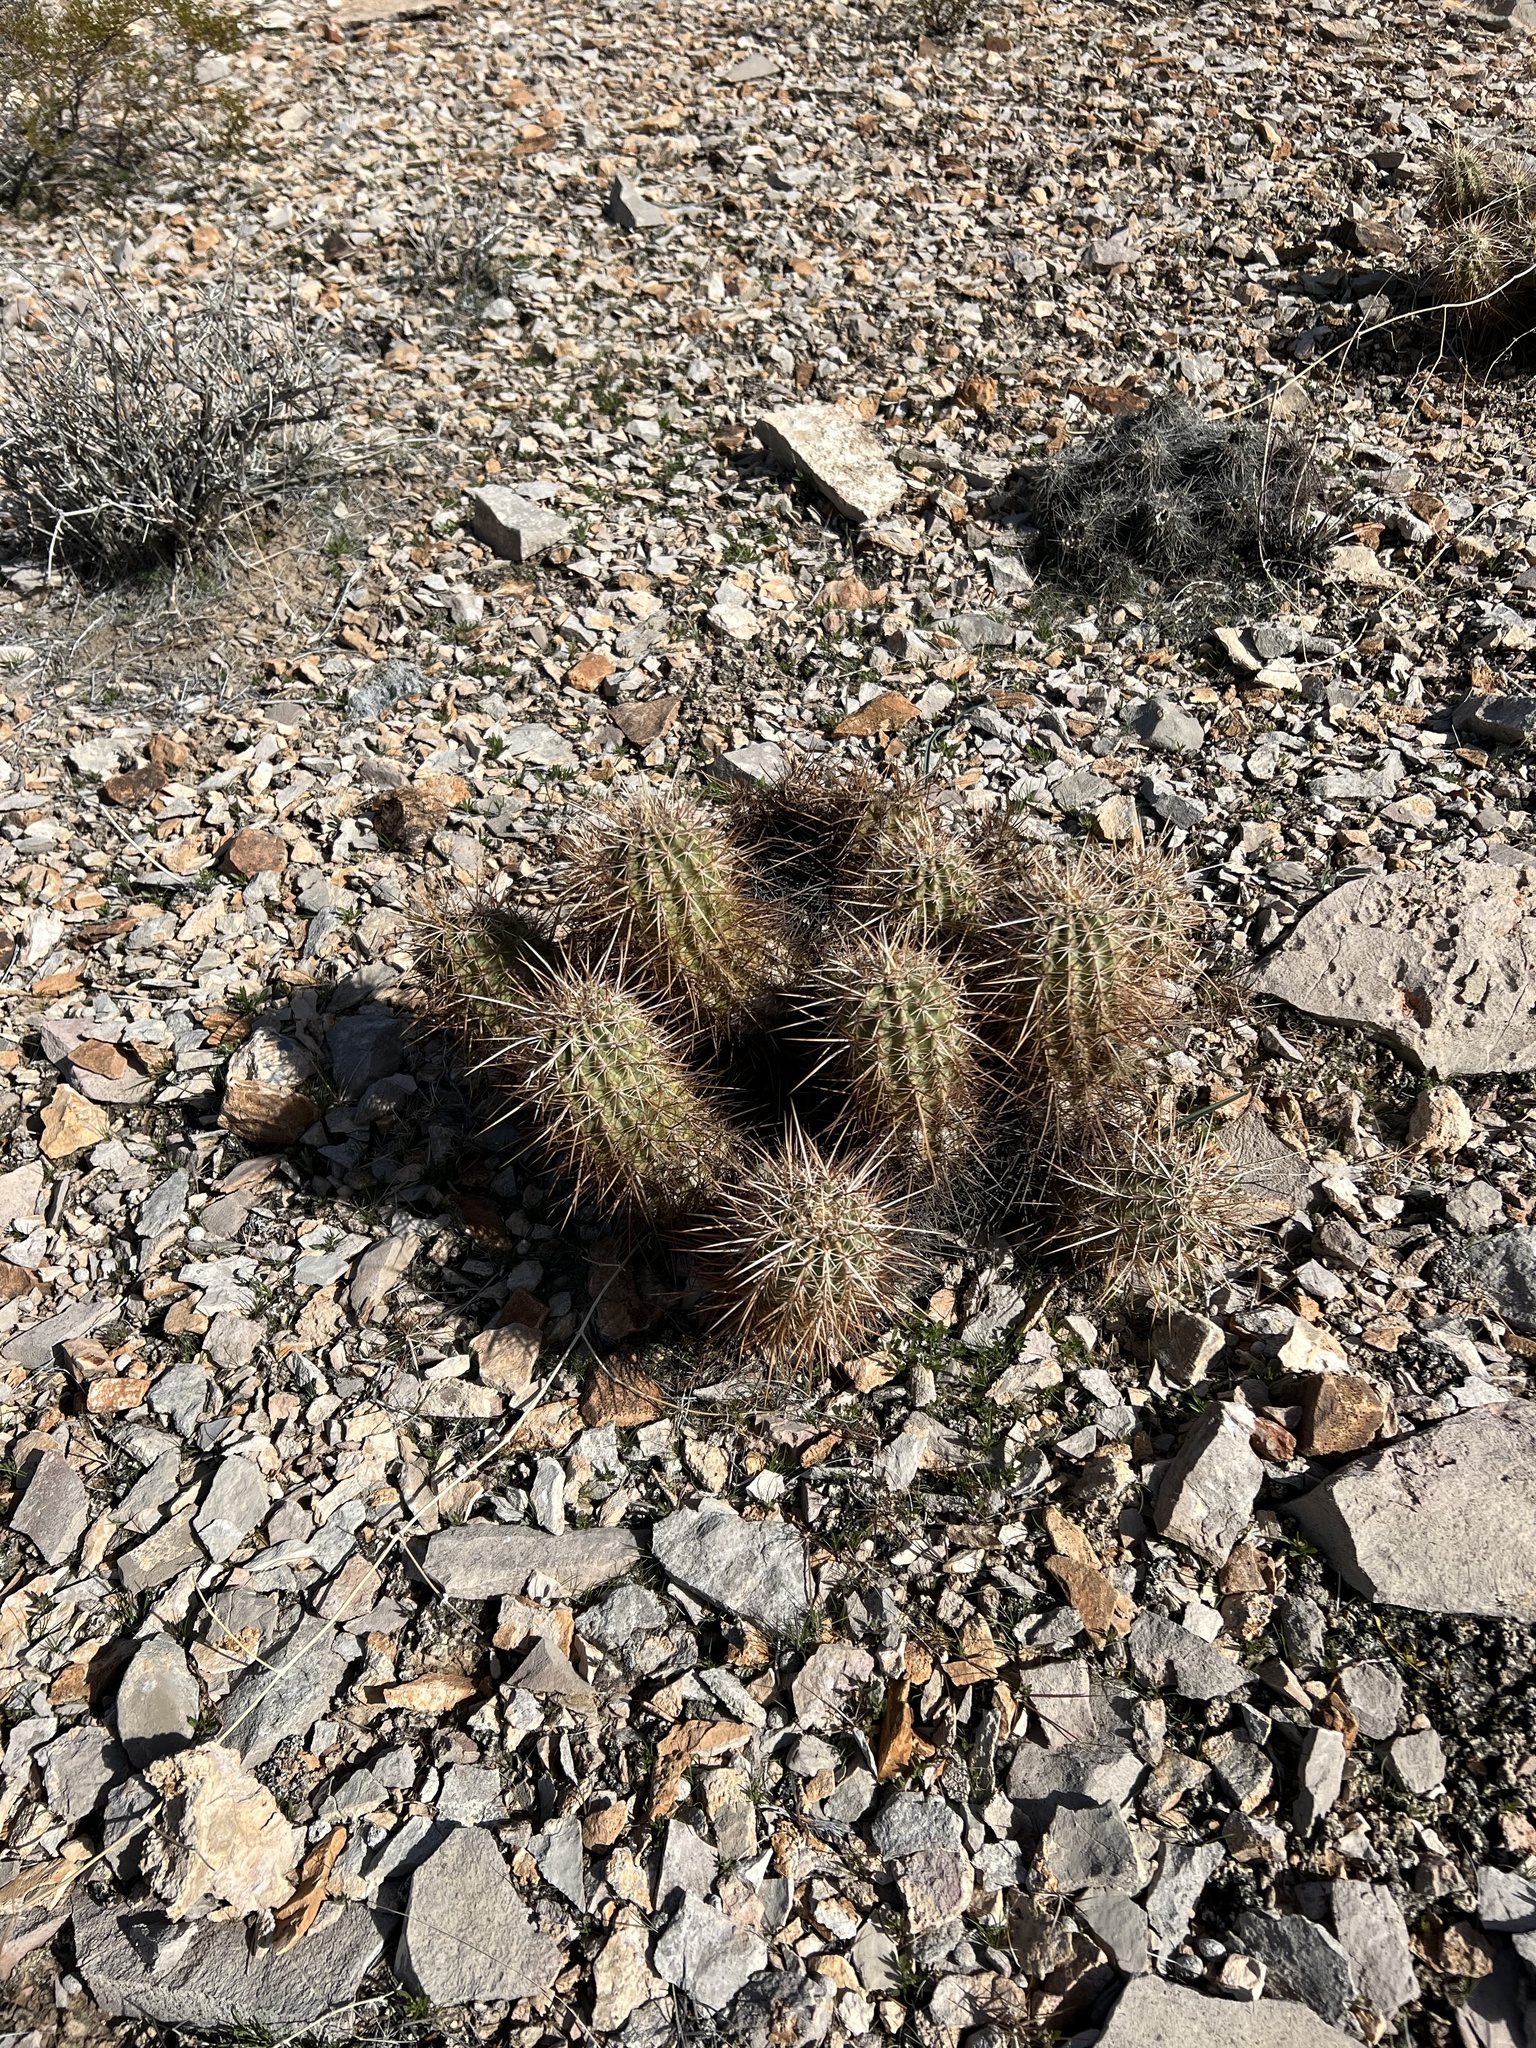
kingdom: Plantae
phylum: Tracheophyta
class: Magnoliopsida
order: Caryophyllales
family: Cactaceae
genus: Echinocereus
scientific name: Echinocereus engelmannii
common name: Engelmann's hedgehog cactus
